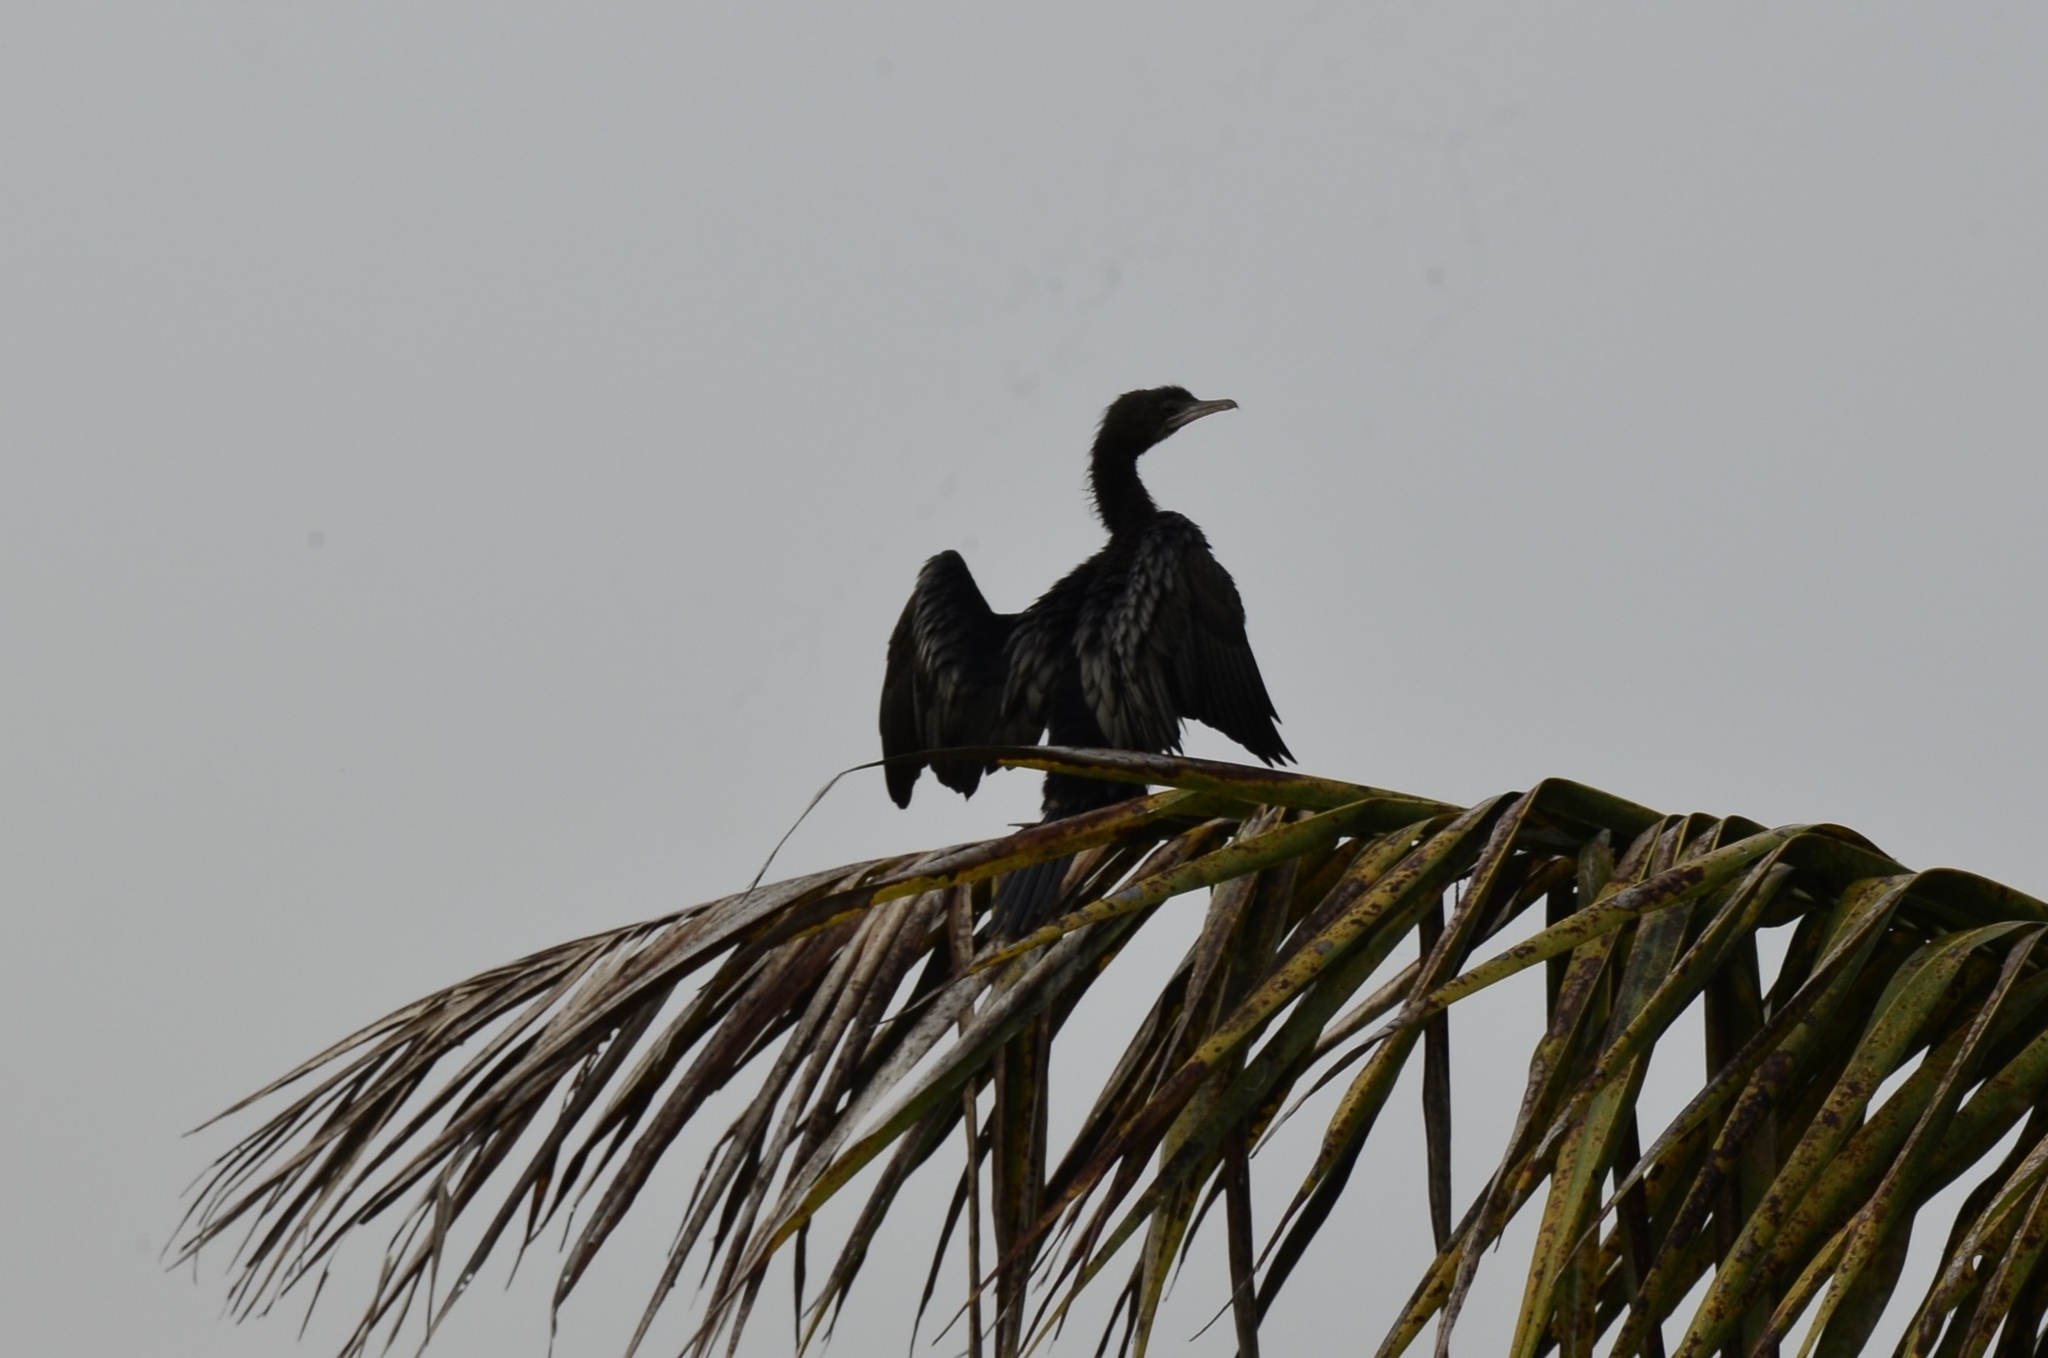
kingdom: Animalia
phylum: Chordata
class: Aves
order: Suliformes
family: Phalacrocoracidae
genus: Microcarbo
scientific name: Microcarbo niger
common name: Little cormorant
